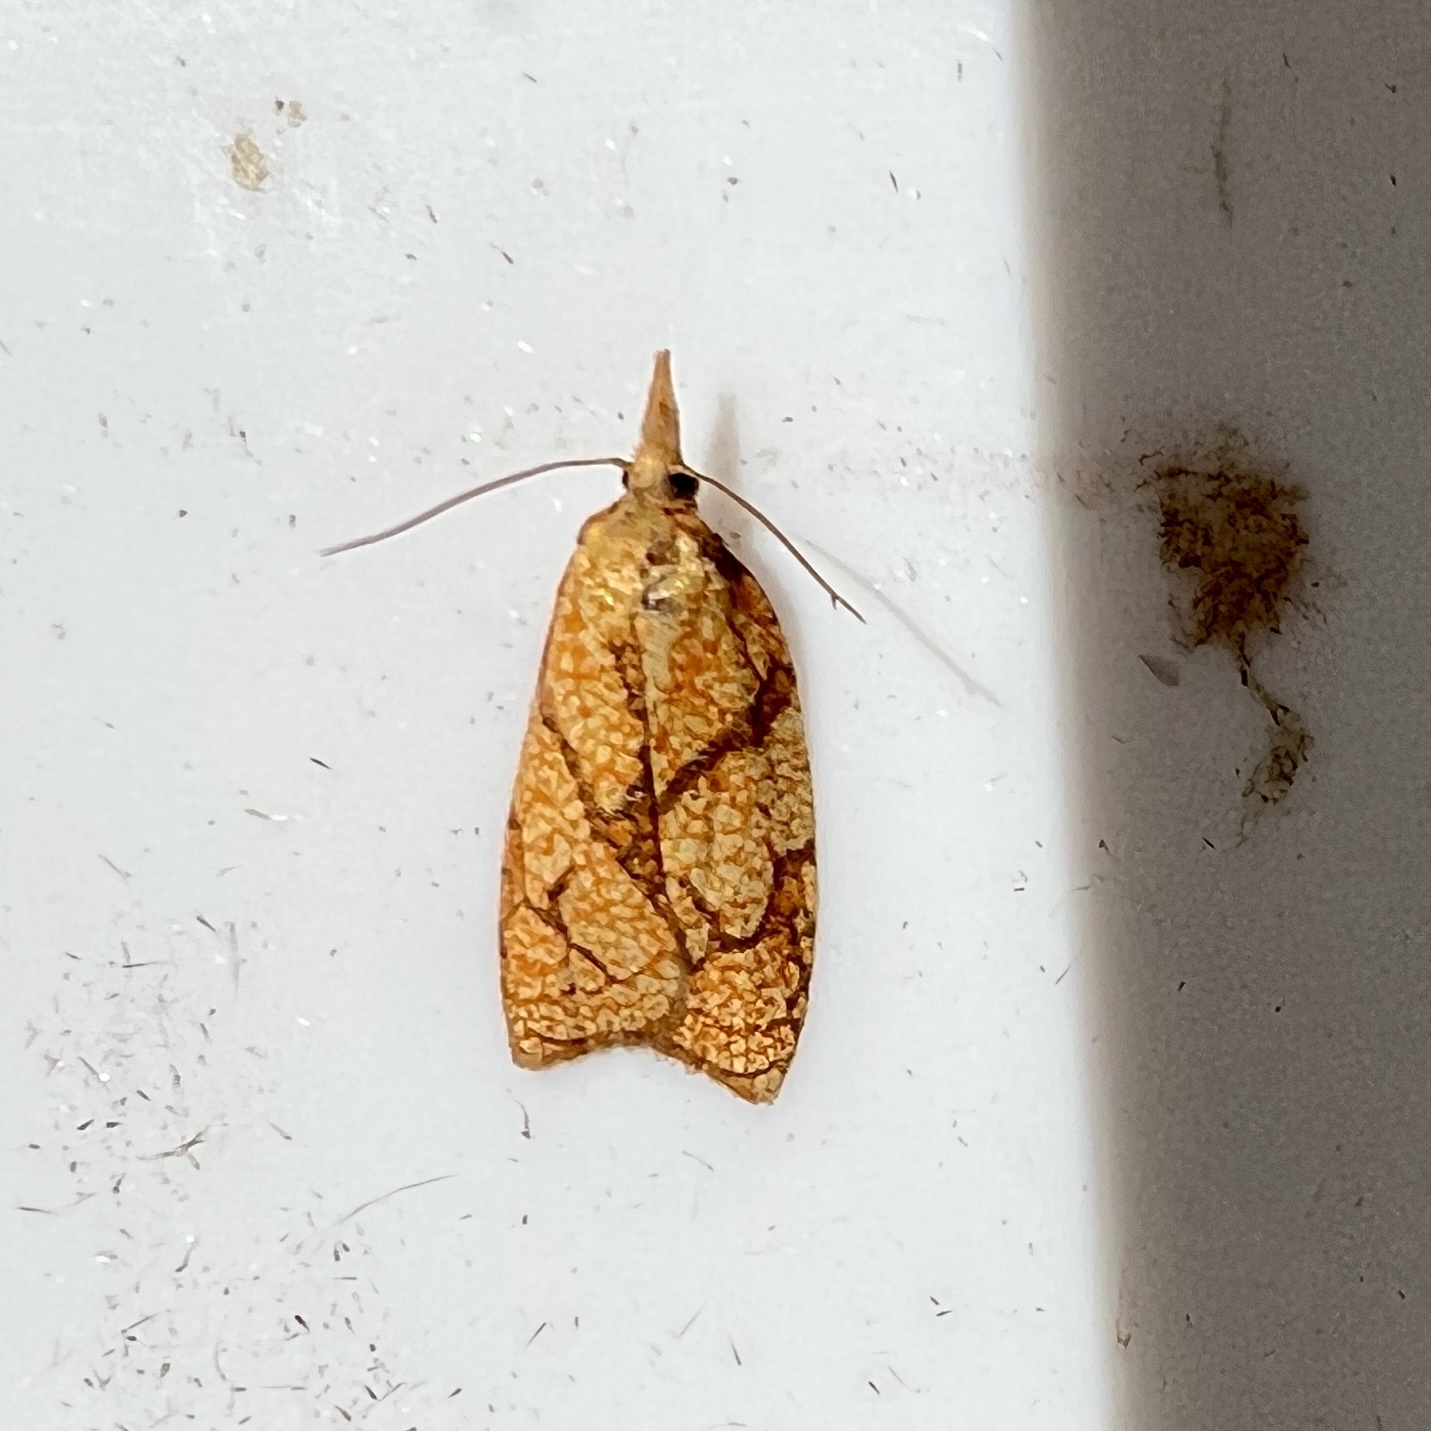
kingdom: Animalia
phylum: Arthropoda
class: Insecta
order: Lepidoptera
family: Tortricidae
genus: Cenopis
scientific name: Cenopis reticulatana
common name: Reticulated fruitworm moth
